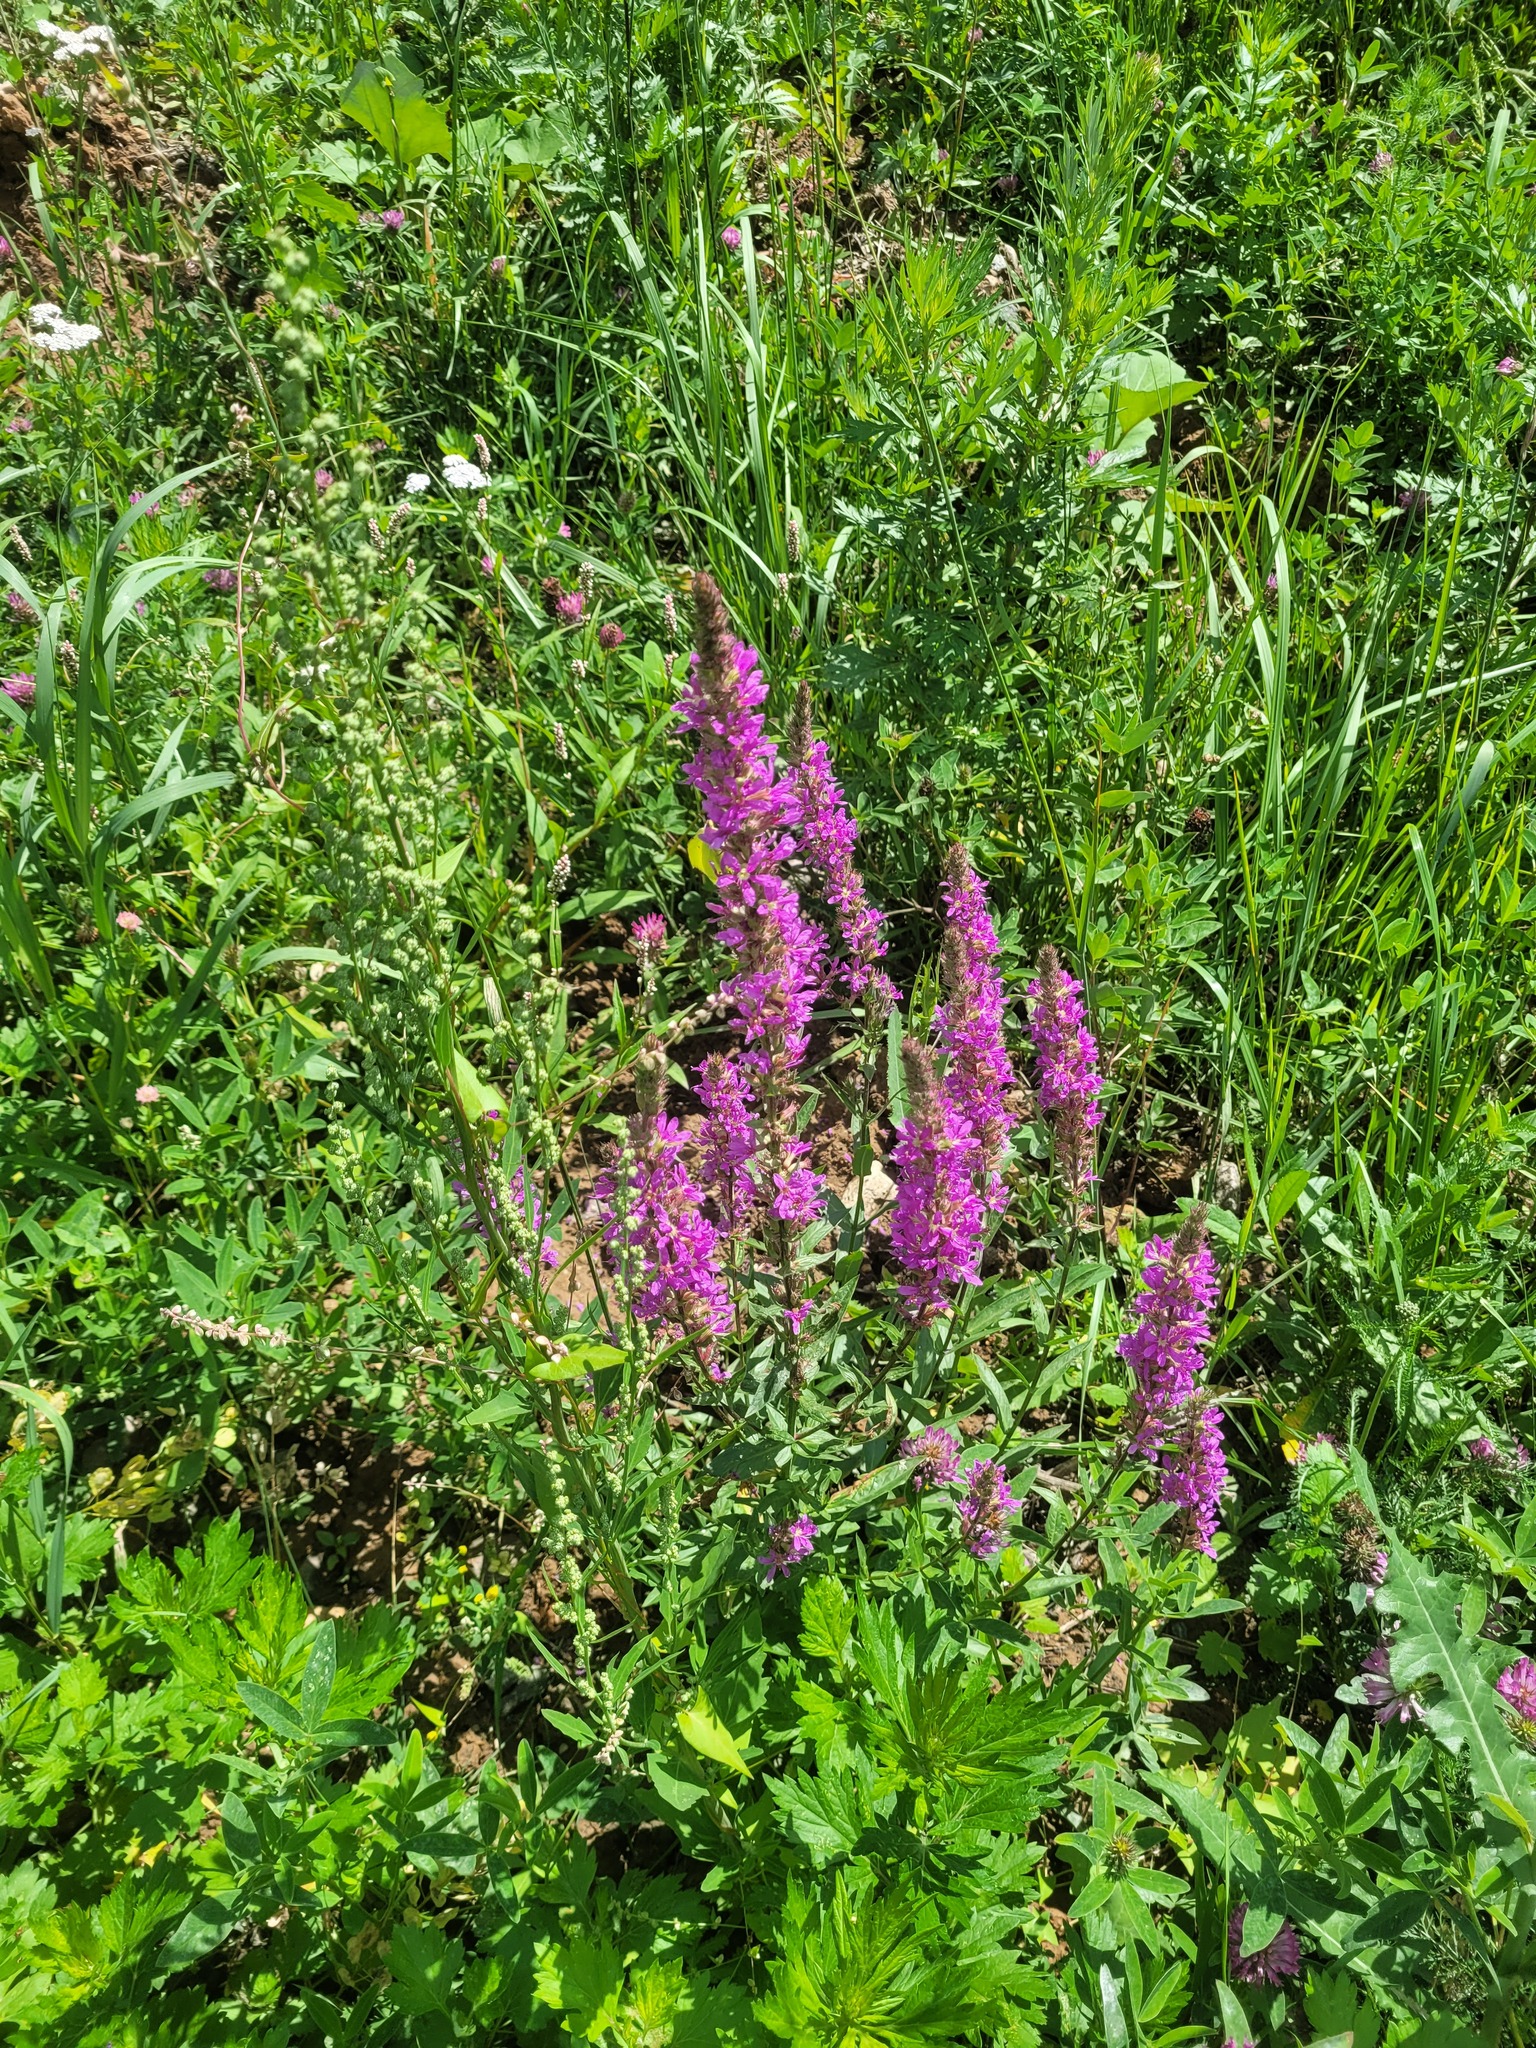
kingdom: Plantae
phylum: Tracheophyta
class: Magnoliopsida
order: Myrtales
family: Lythraceae
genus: Lythrum
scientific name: Lythrum salicaria
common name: Purple loosestrife
